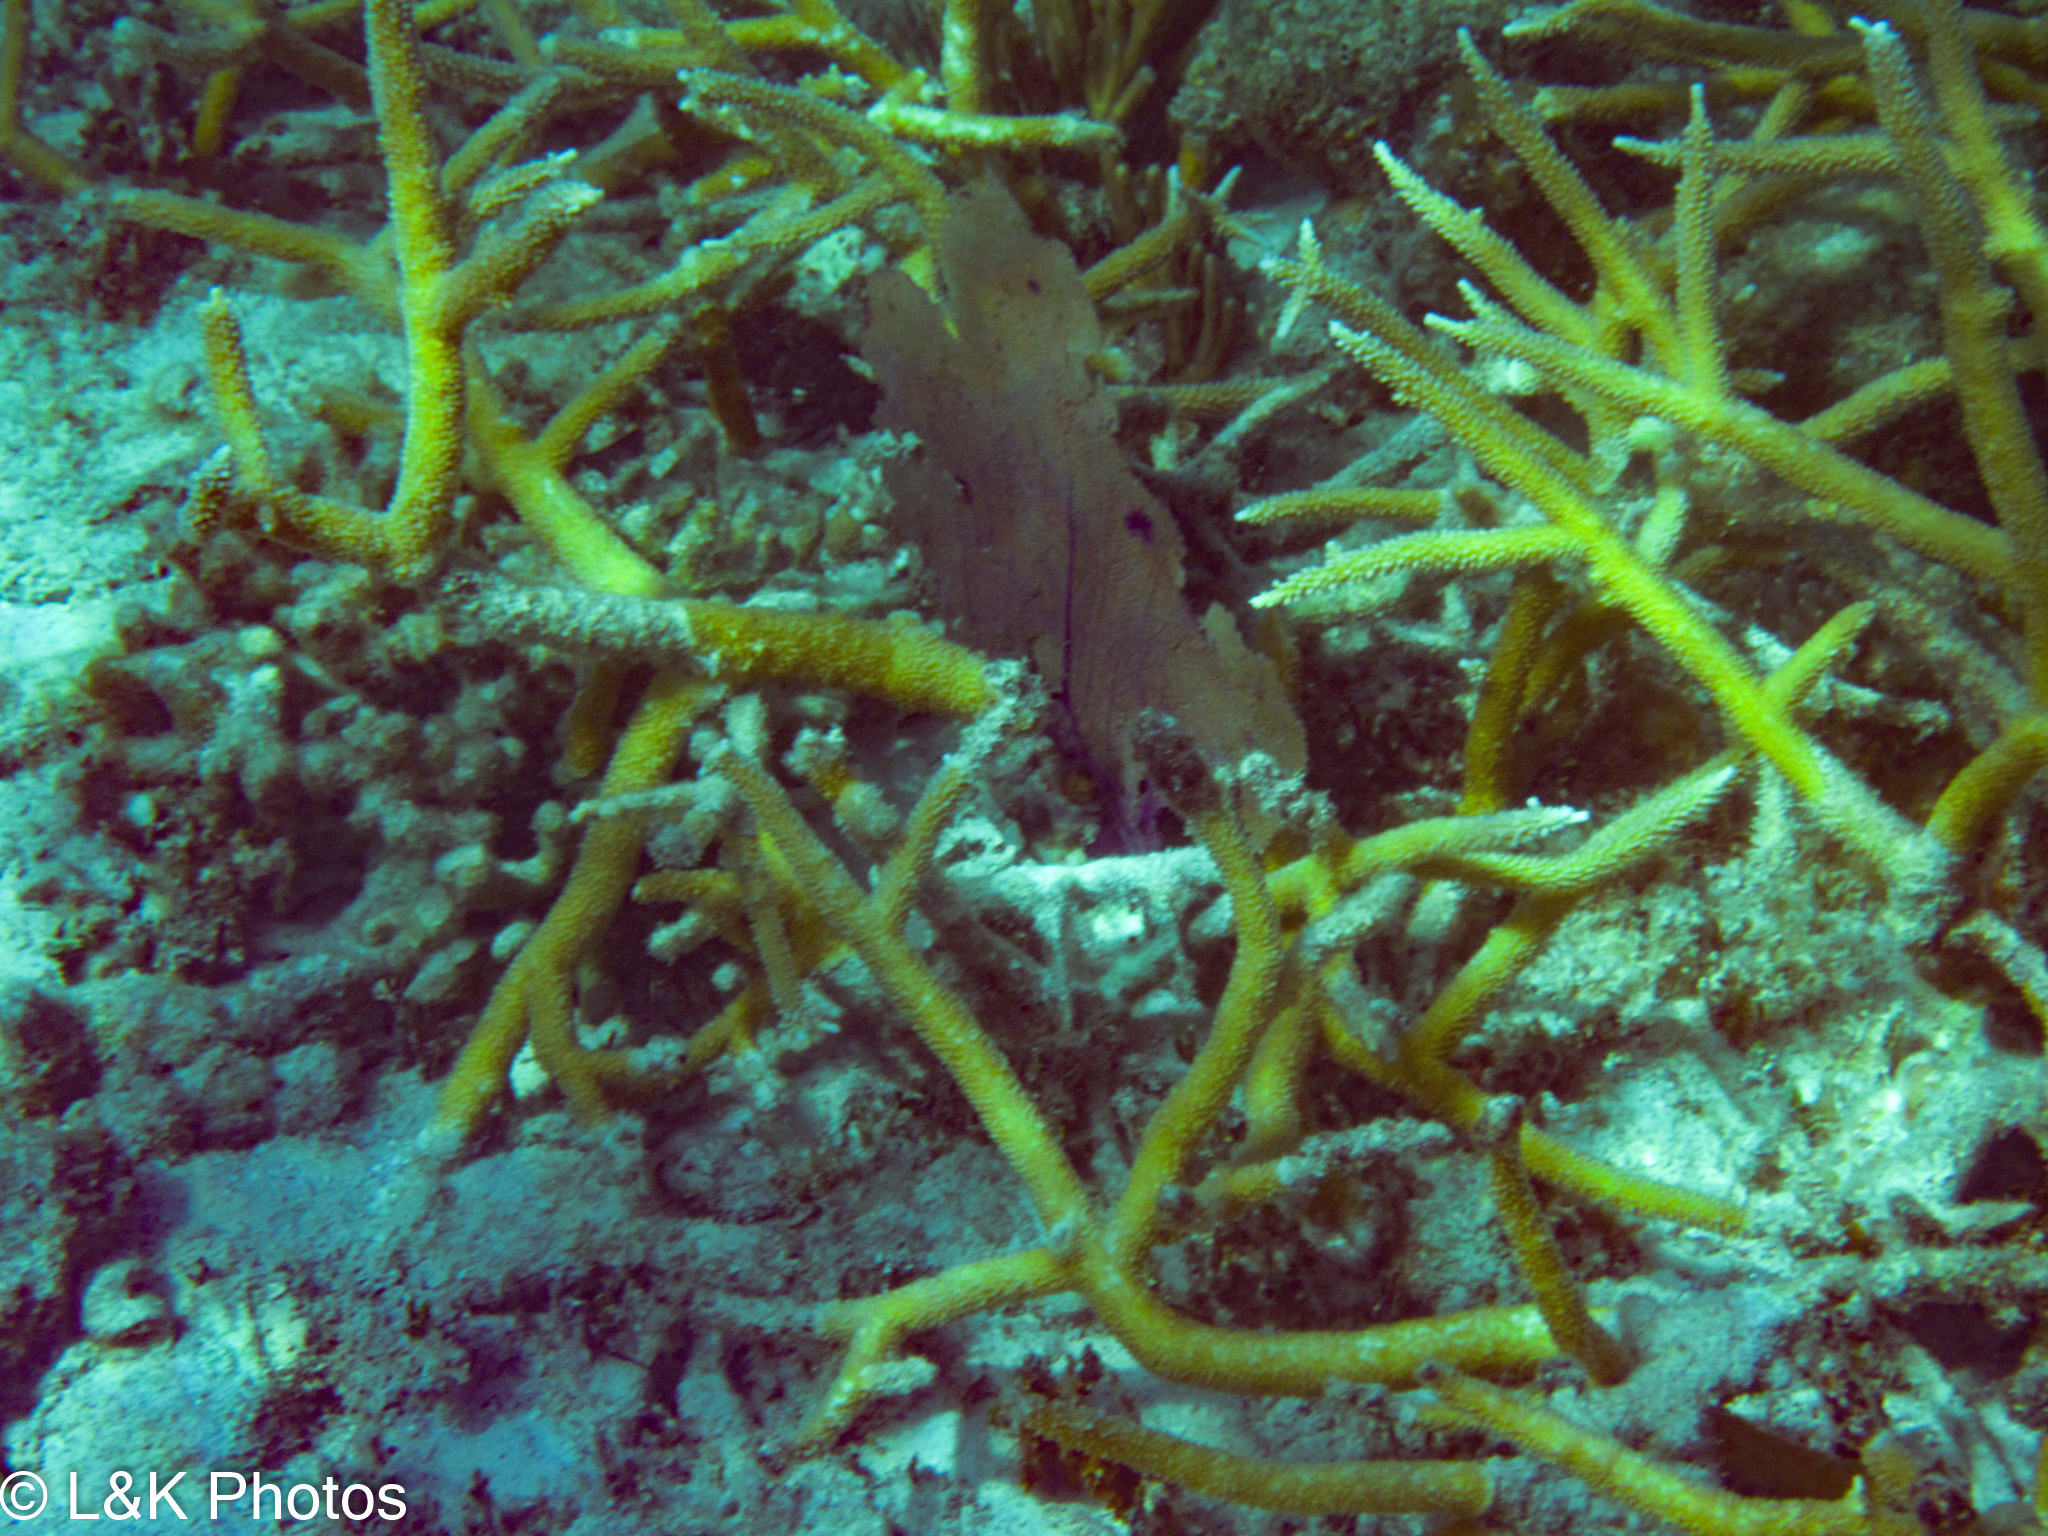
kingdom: Animalia
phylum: Cnidaria
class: Anthozoa
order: Scleractinia
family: Acroporidae
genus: Acropora
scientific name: Acropora cervicornis
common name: Staghorn coral
